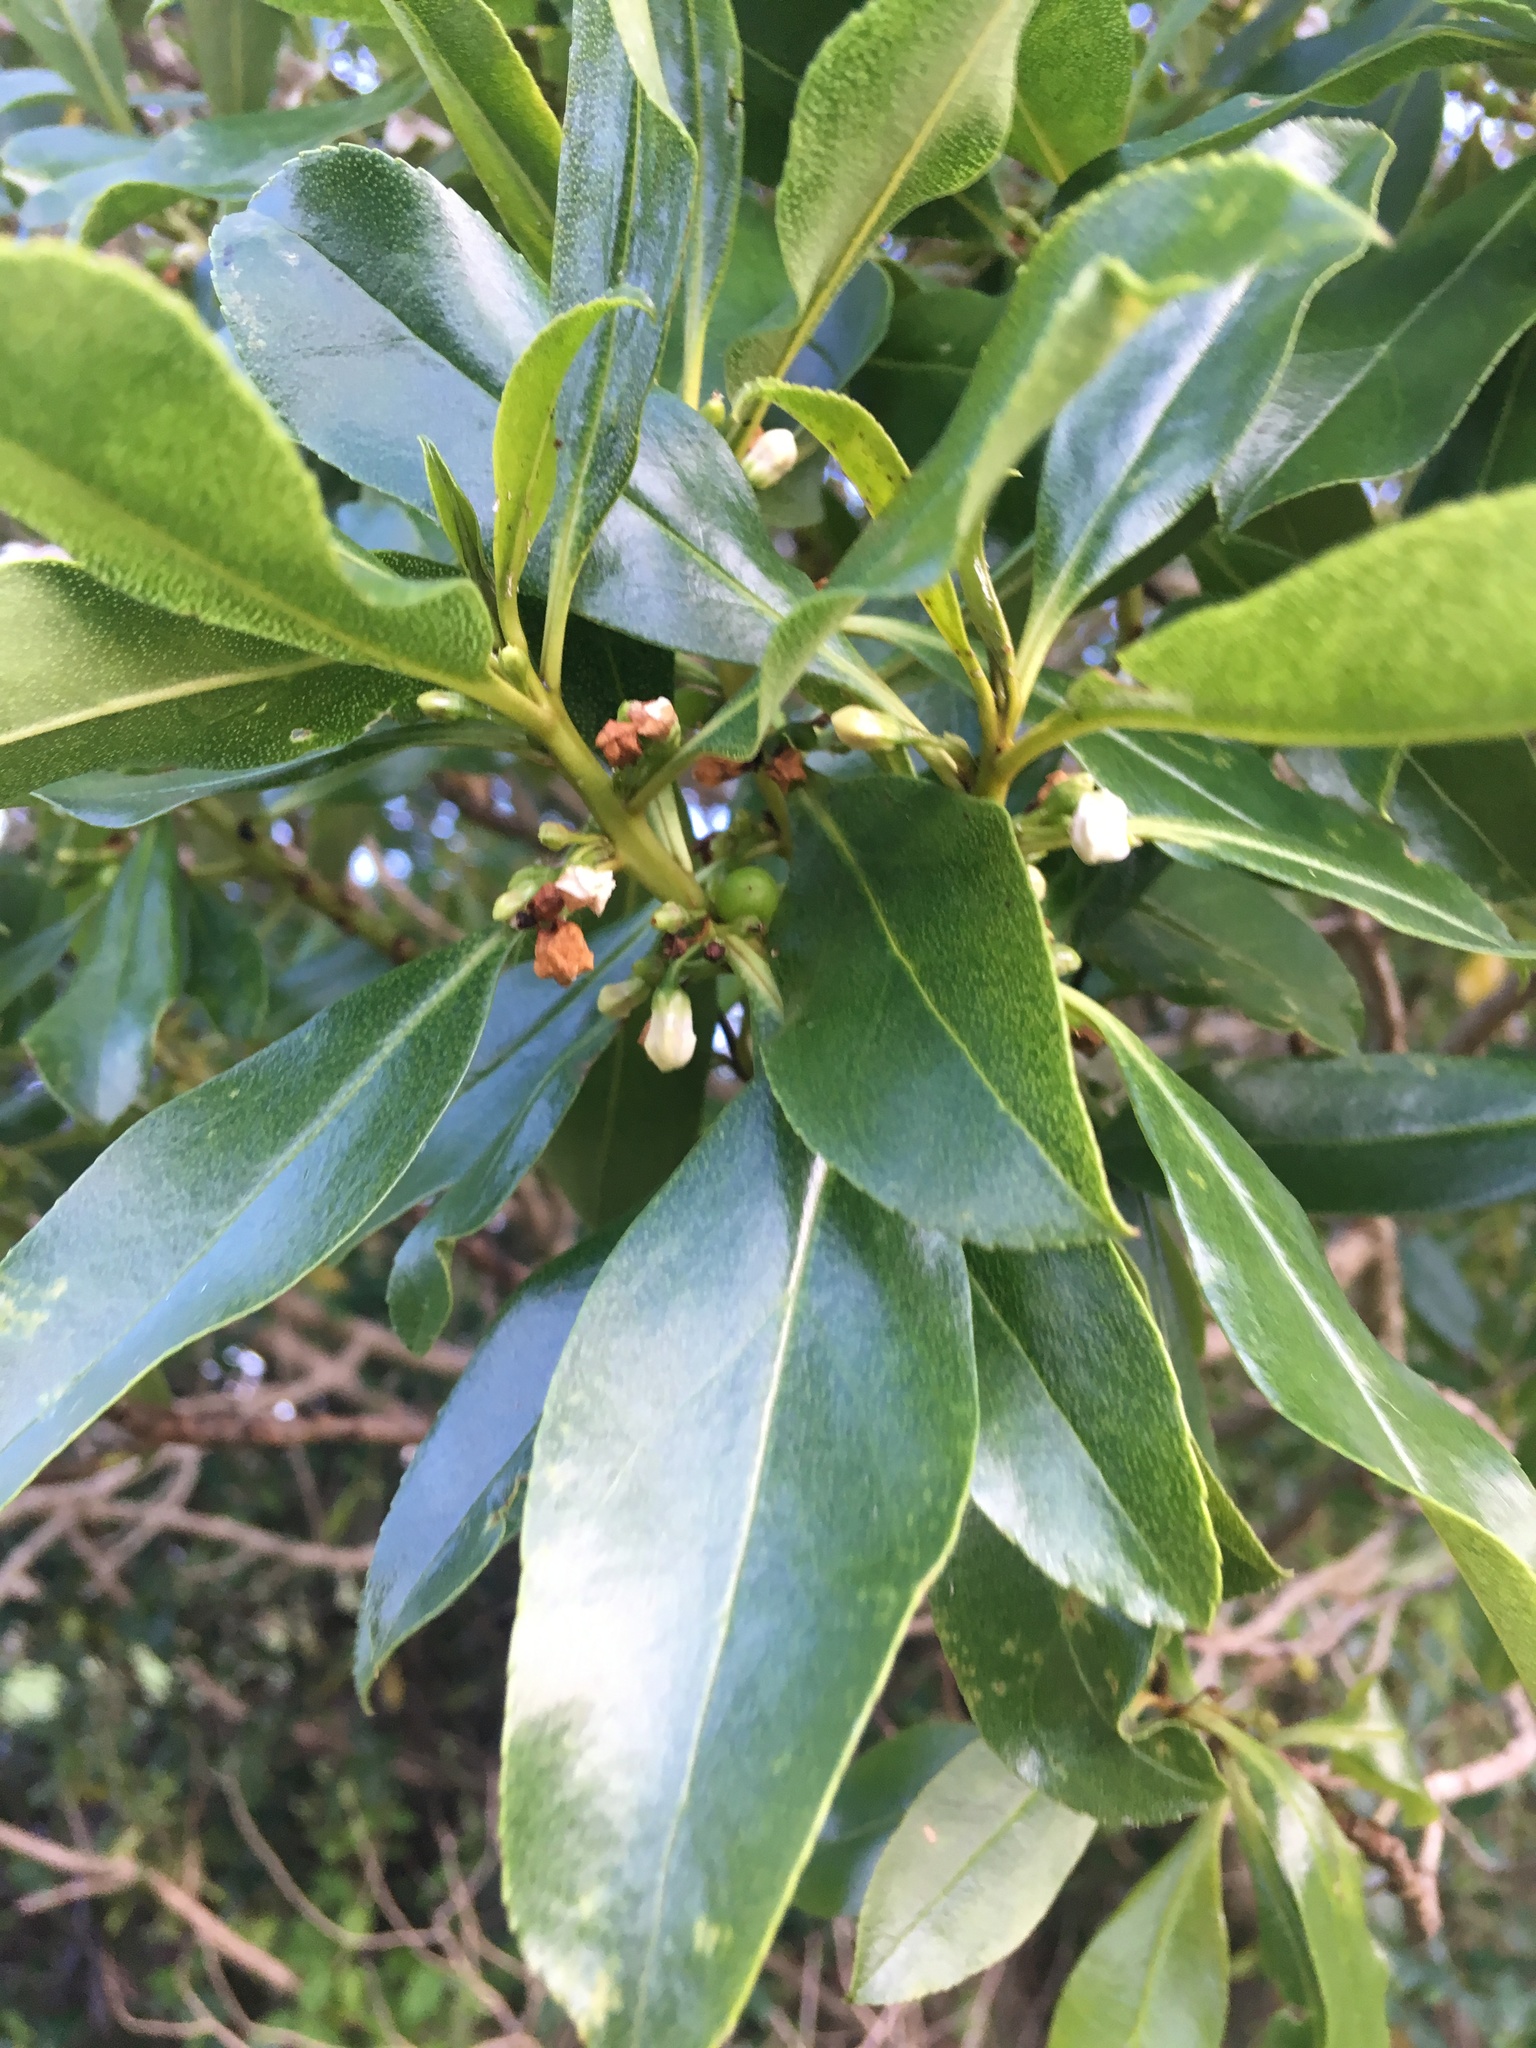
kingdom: Plantae
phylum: Tracheophyta
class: Magnoliopsida
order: Lamiales
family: Scrophulariaceae
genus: Myoporum
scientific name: Myoporum laetum
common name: Ngaio tree
